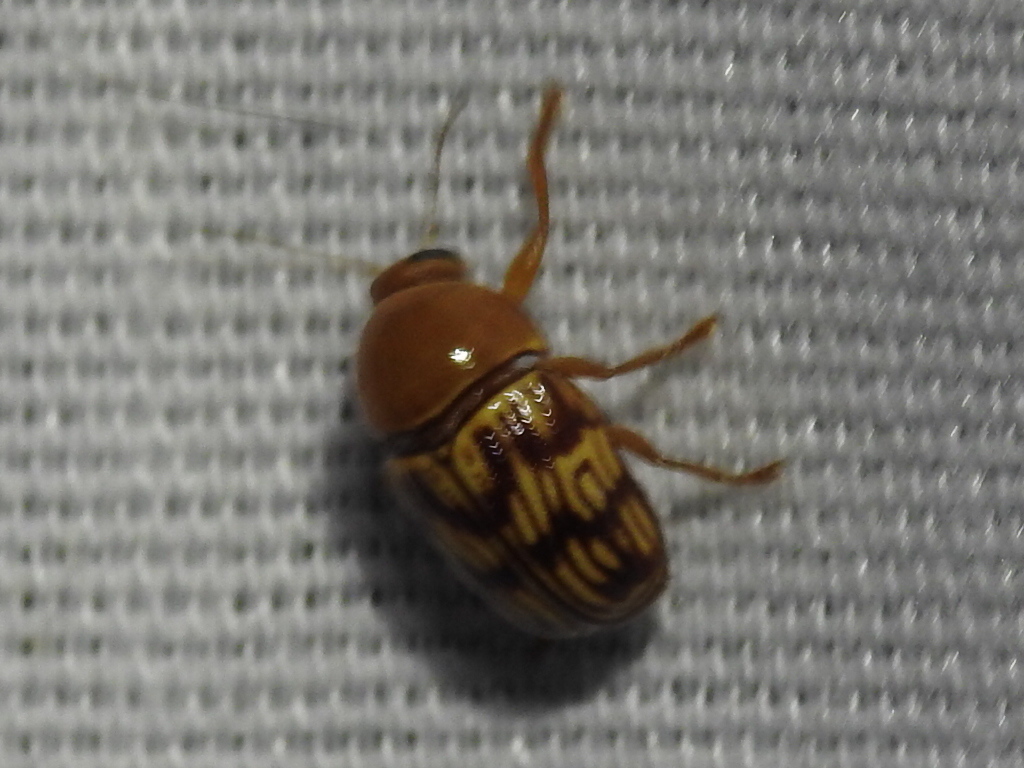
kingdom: Animalia
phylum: Arthropoda
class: Insecta
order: Coleoptera
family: Chrysomelidae
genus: Cryptocephalus
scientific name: Cryptocephalus fulguratus
